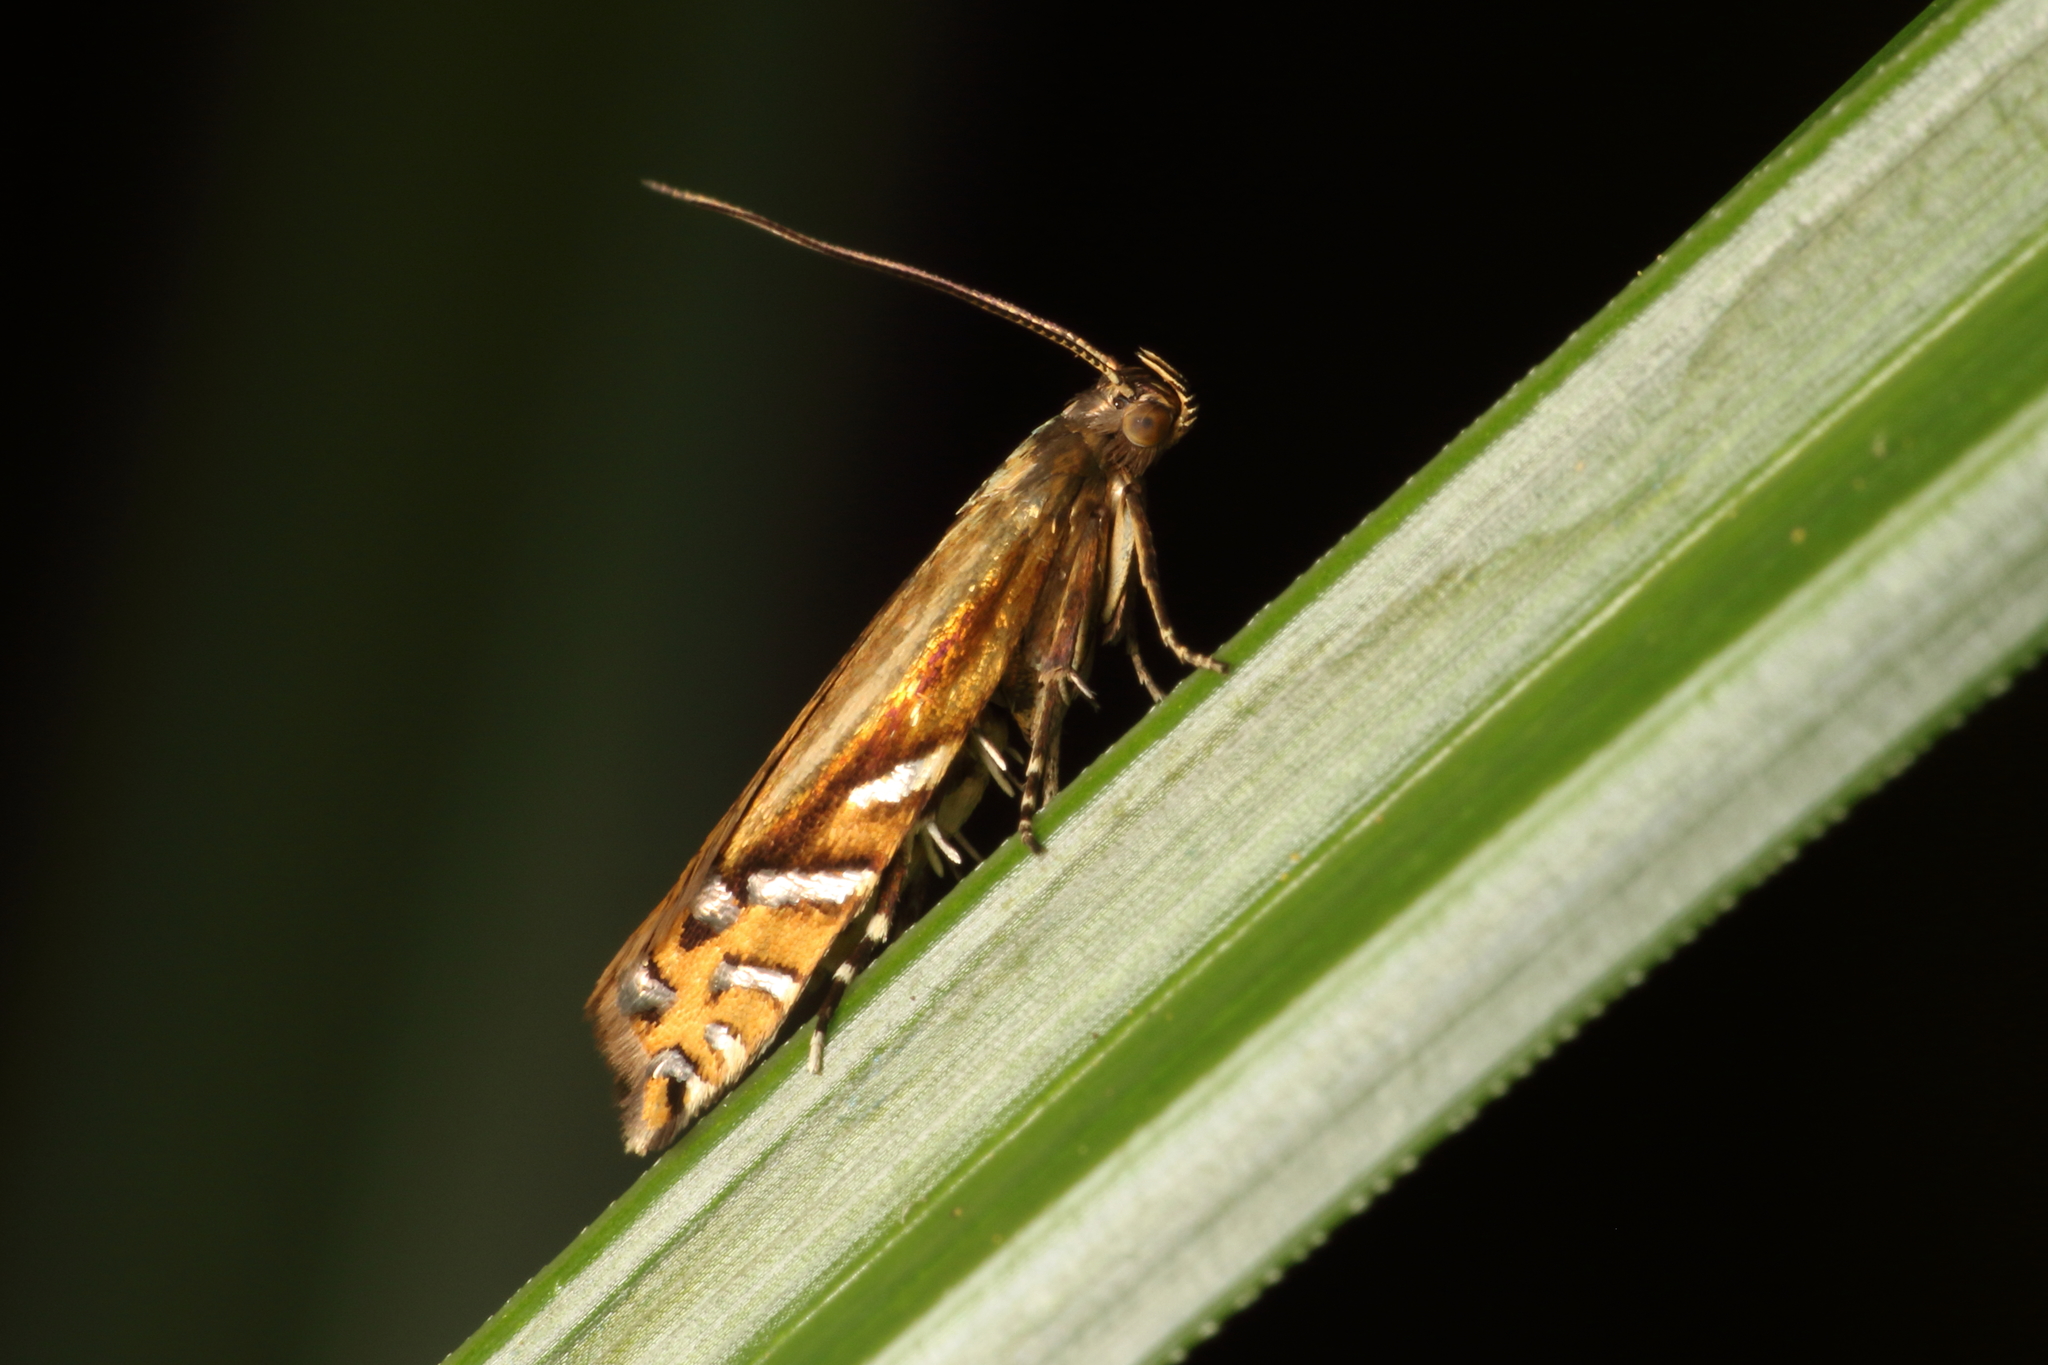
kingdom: Animalia
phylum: Arthropoda
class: Insecta
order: Lepidoptera
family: Glyphipterigidae
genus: Glyphipterix
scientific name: Glyphipterix scintilella
